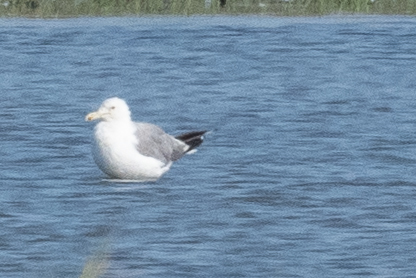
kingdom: Animalia
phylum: Chordata
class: Aves
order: Charadriiformes
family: Laridae
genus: Larus
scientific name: Larus californicus
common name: California gull
